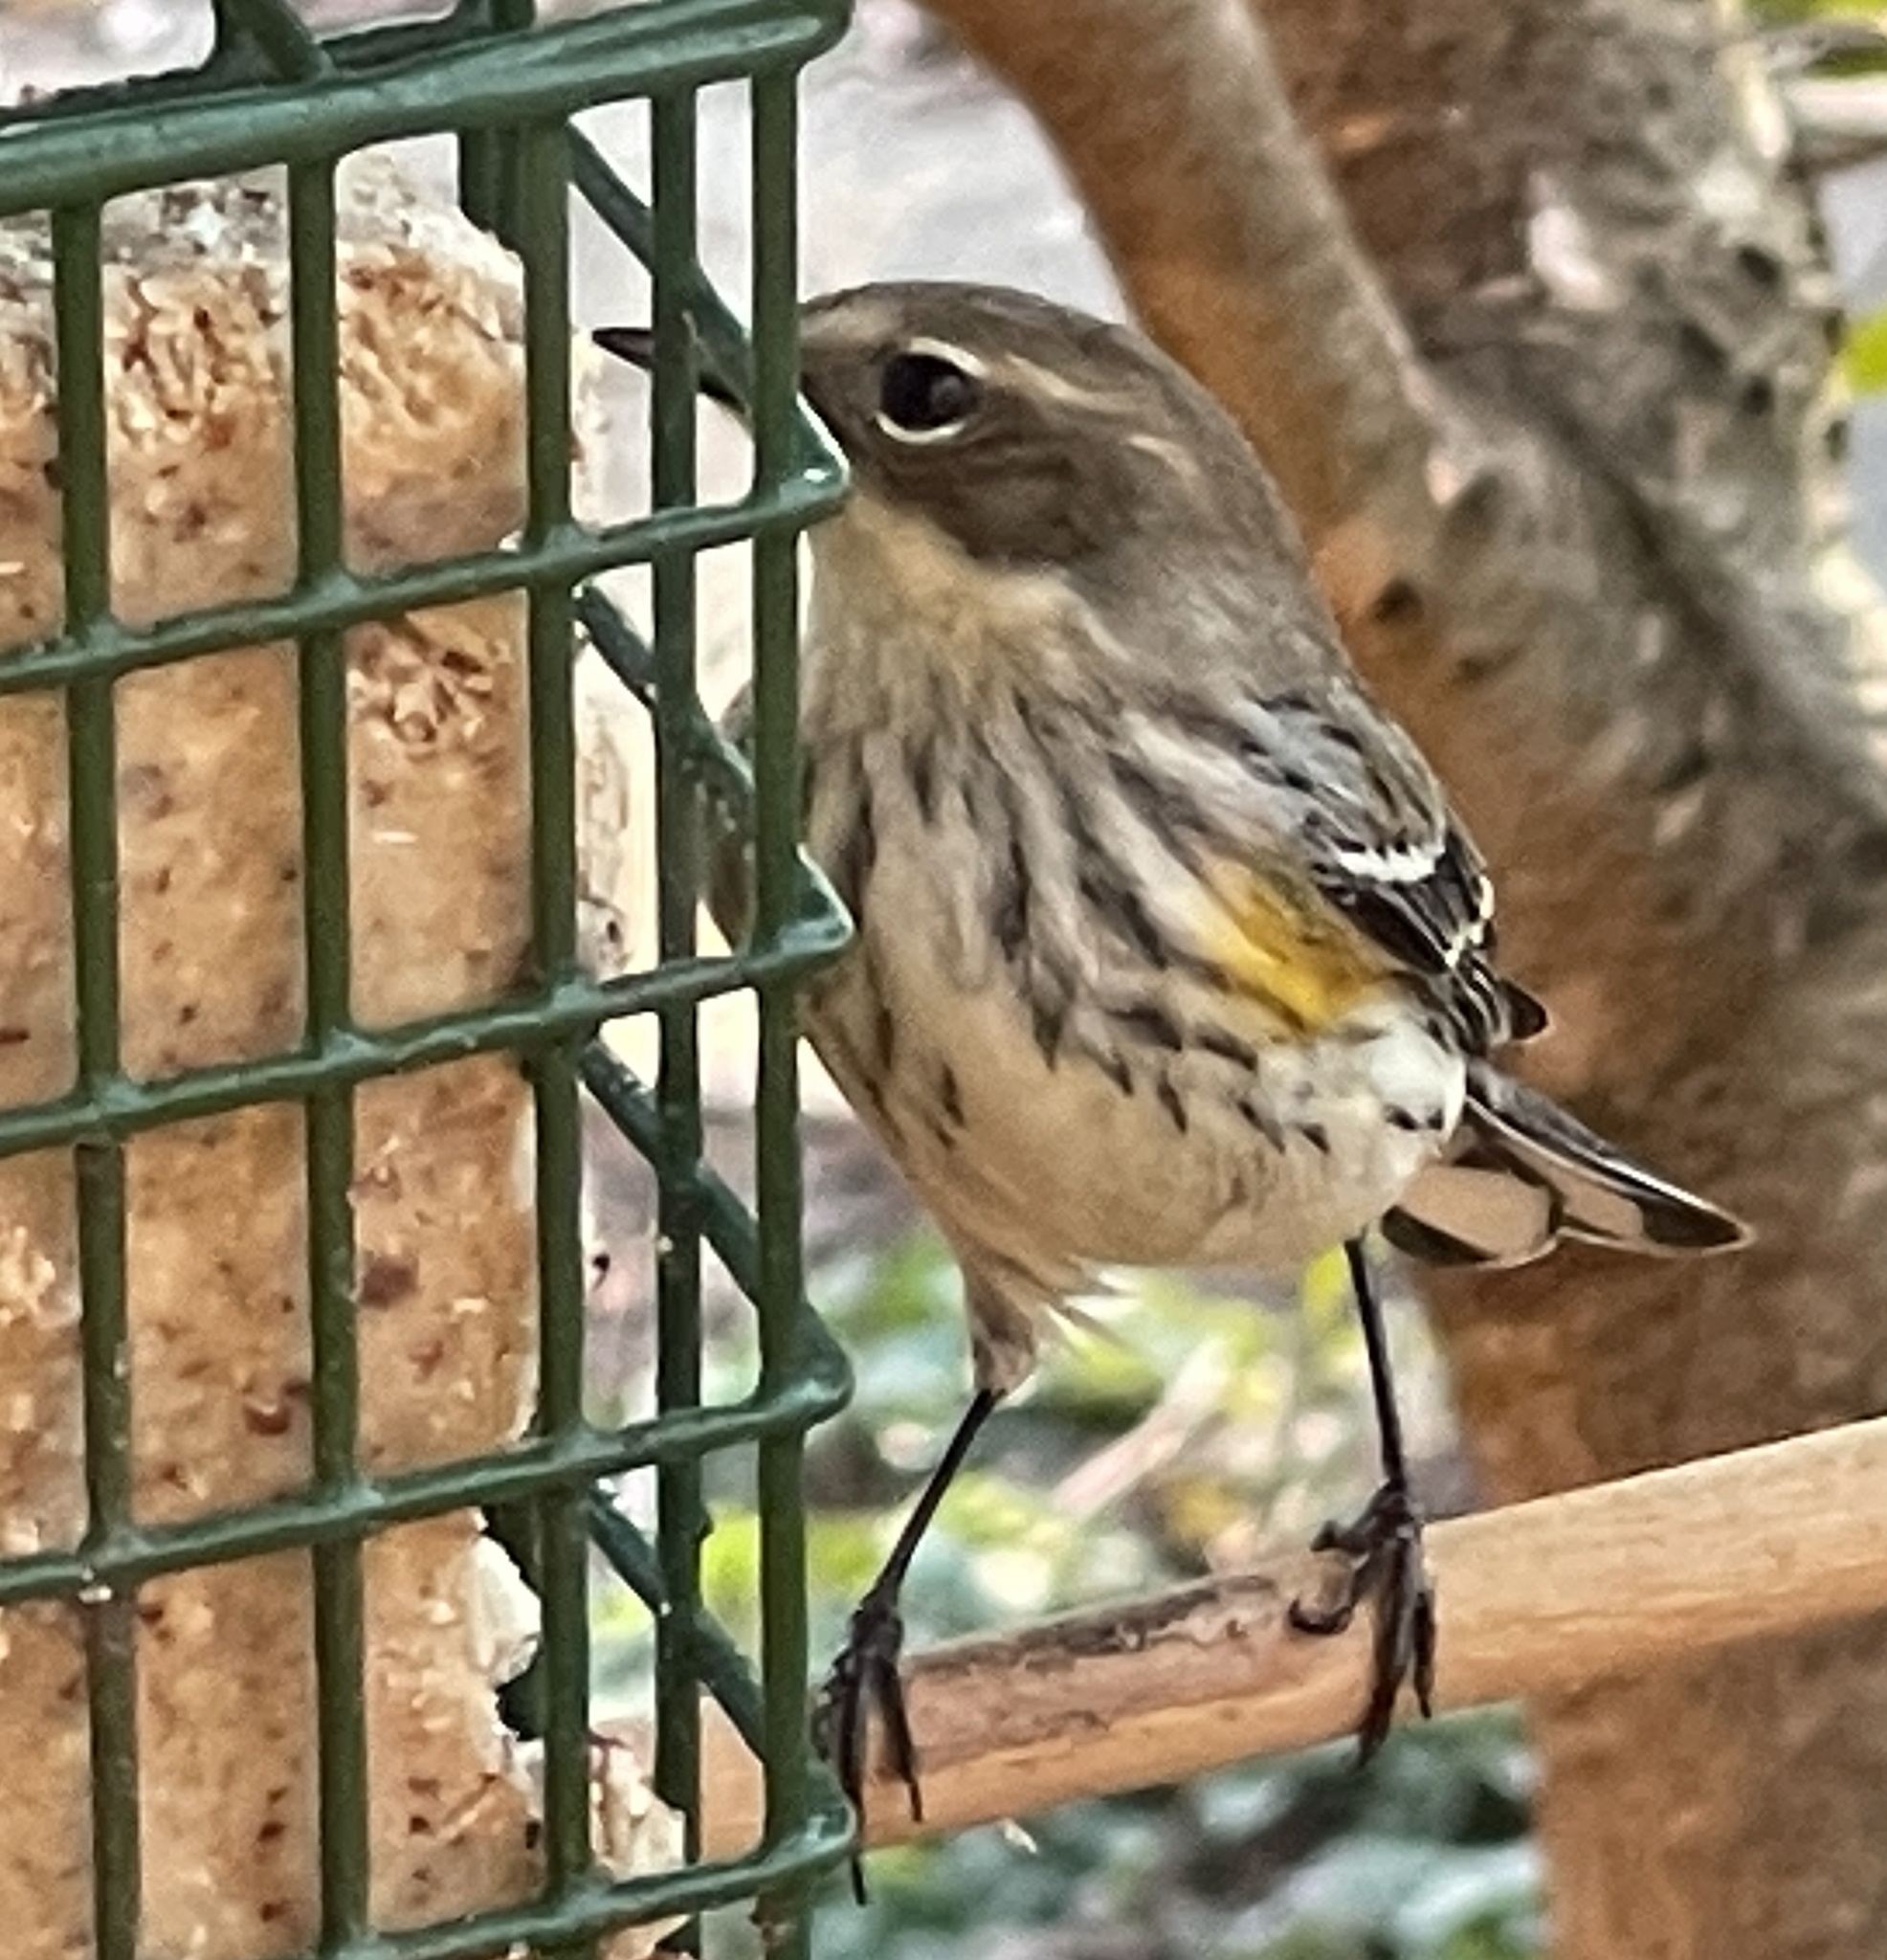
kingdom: Animalia
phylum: Chordata
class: Aves
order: Passeriformes
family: Parulidae
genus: Setophaga
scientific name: Setophaga coronata
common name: Myrtle warbler
